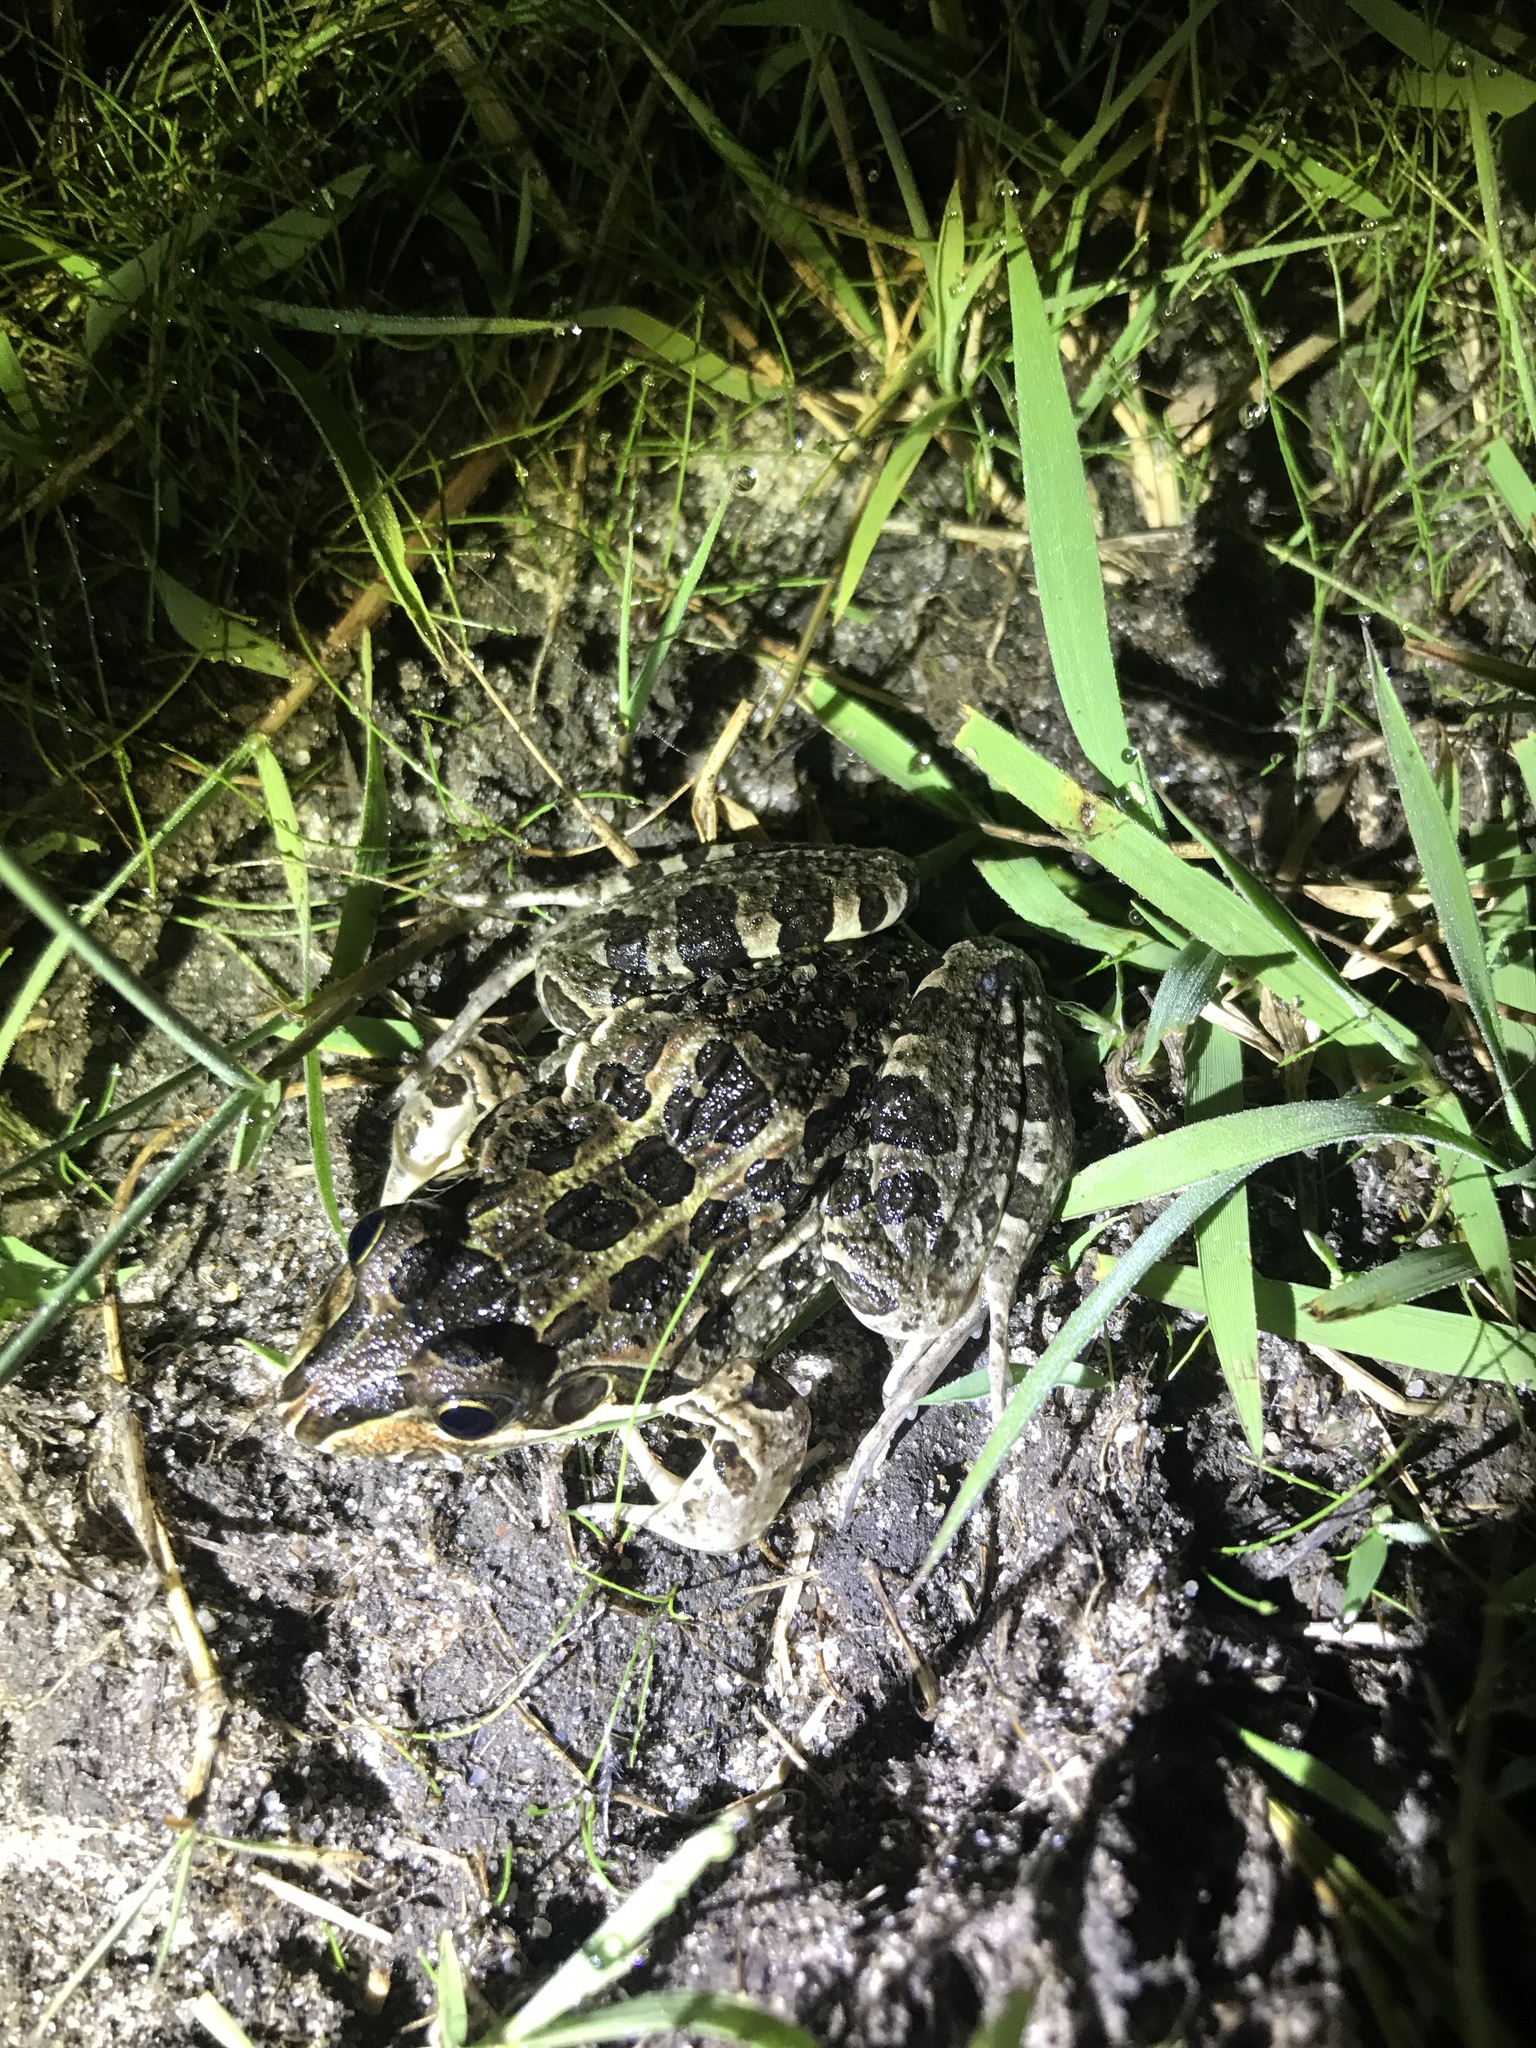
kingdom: Animalia
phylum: Chordata
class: Amphibia
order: Anura
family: Leptodactylidae
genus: Leptodactylus
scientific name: Leptodactylus luctator
